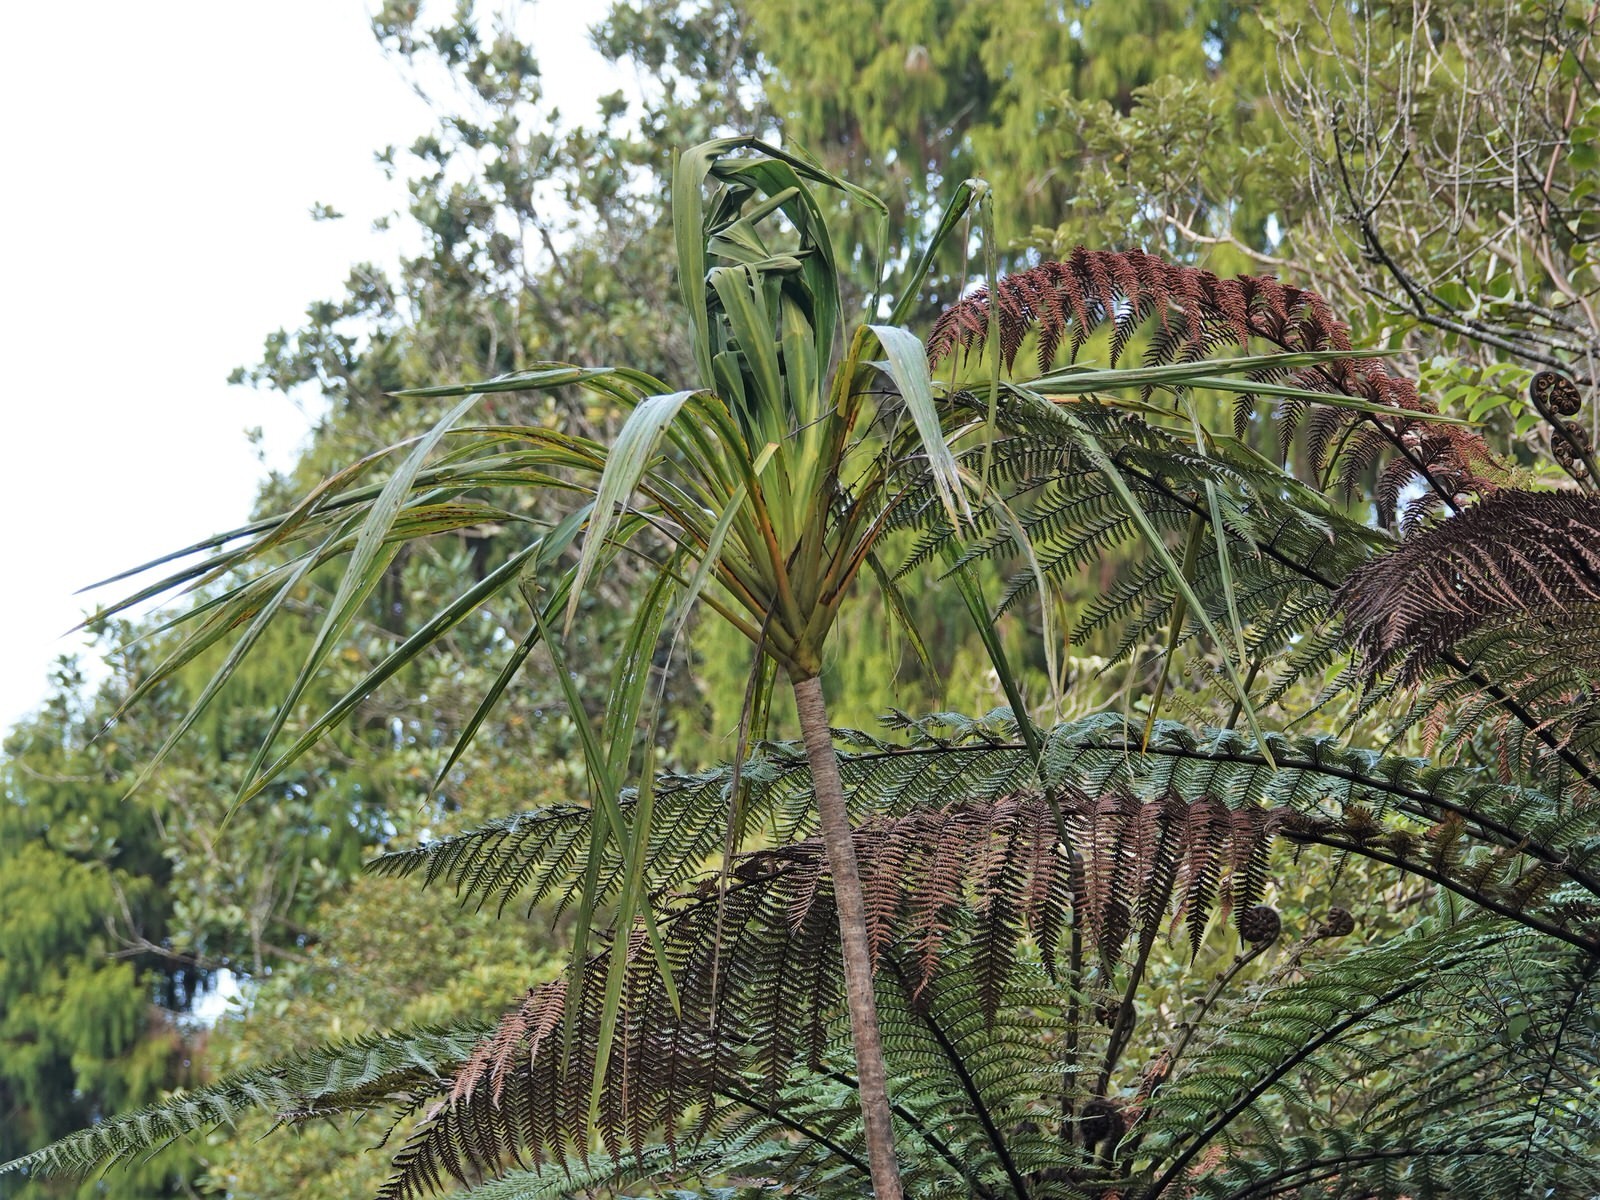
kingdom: Plantae
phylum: Tracheophyta
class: Liliopsida
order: Asparagales
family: Asparagaceae
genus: Cordyline
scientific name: Cordyline banksii
